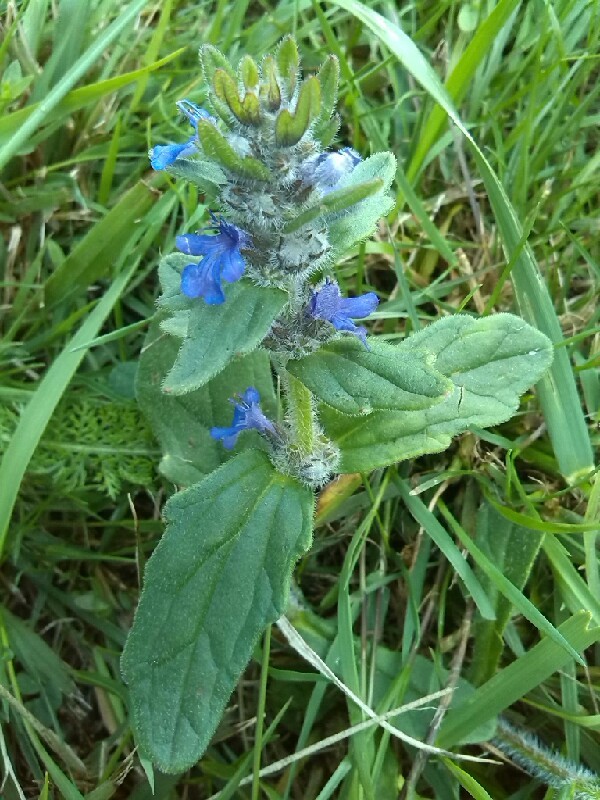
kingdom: Plantae
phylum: Tracheophyta
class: Magnoliopsida
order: Lamiales
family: Lamiaceae
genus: Ajuga
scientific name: Ajuga genevensis
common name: Blue bugle
